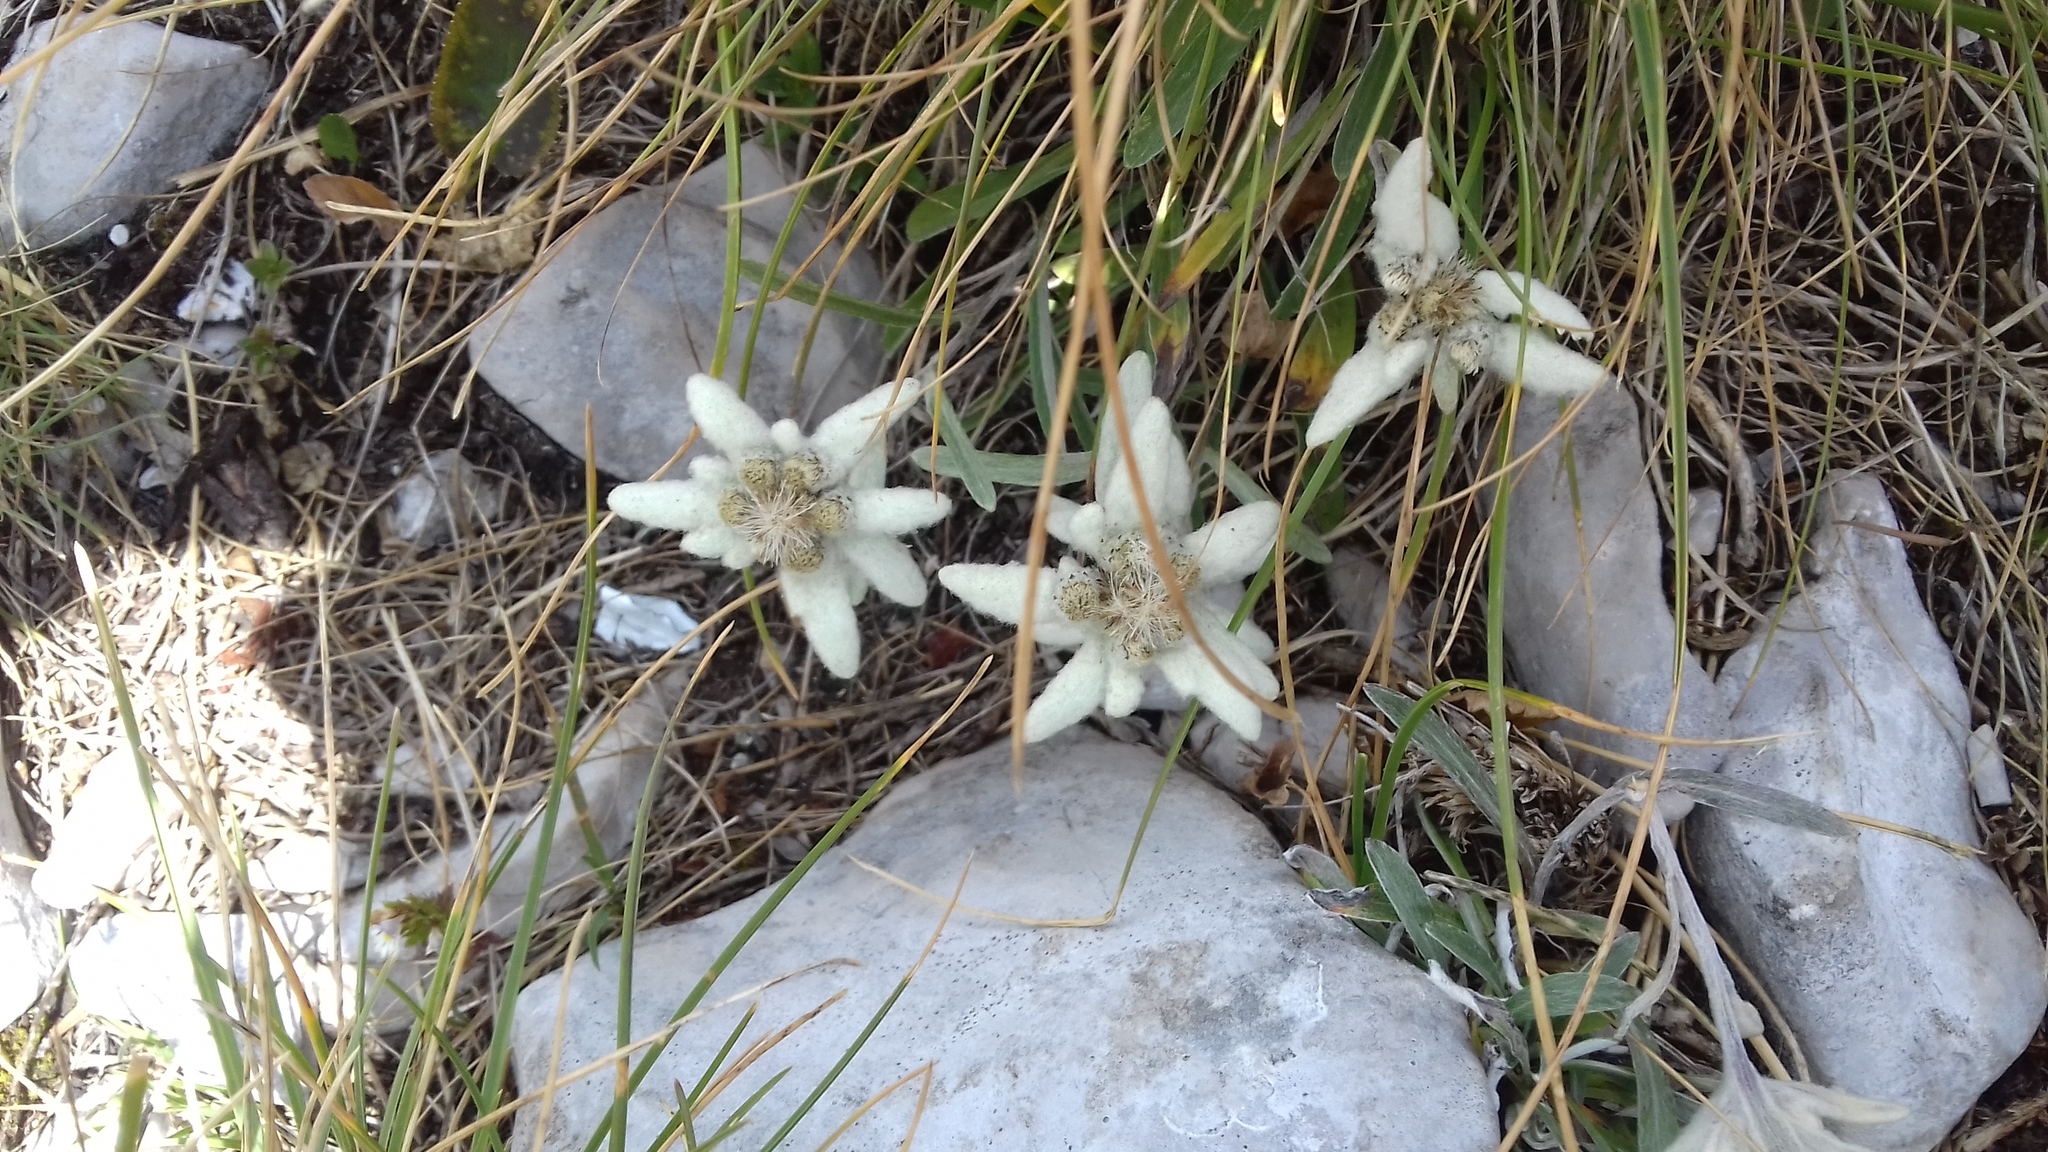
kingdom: Plantae
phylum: Tracheophyta
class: Magnoliopsida
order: Asterales
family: Asteraceae
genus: Leontopodium
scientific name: Leontopodium nivale
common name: Edelweiss
